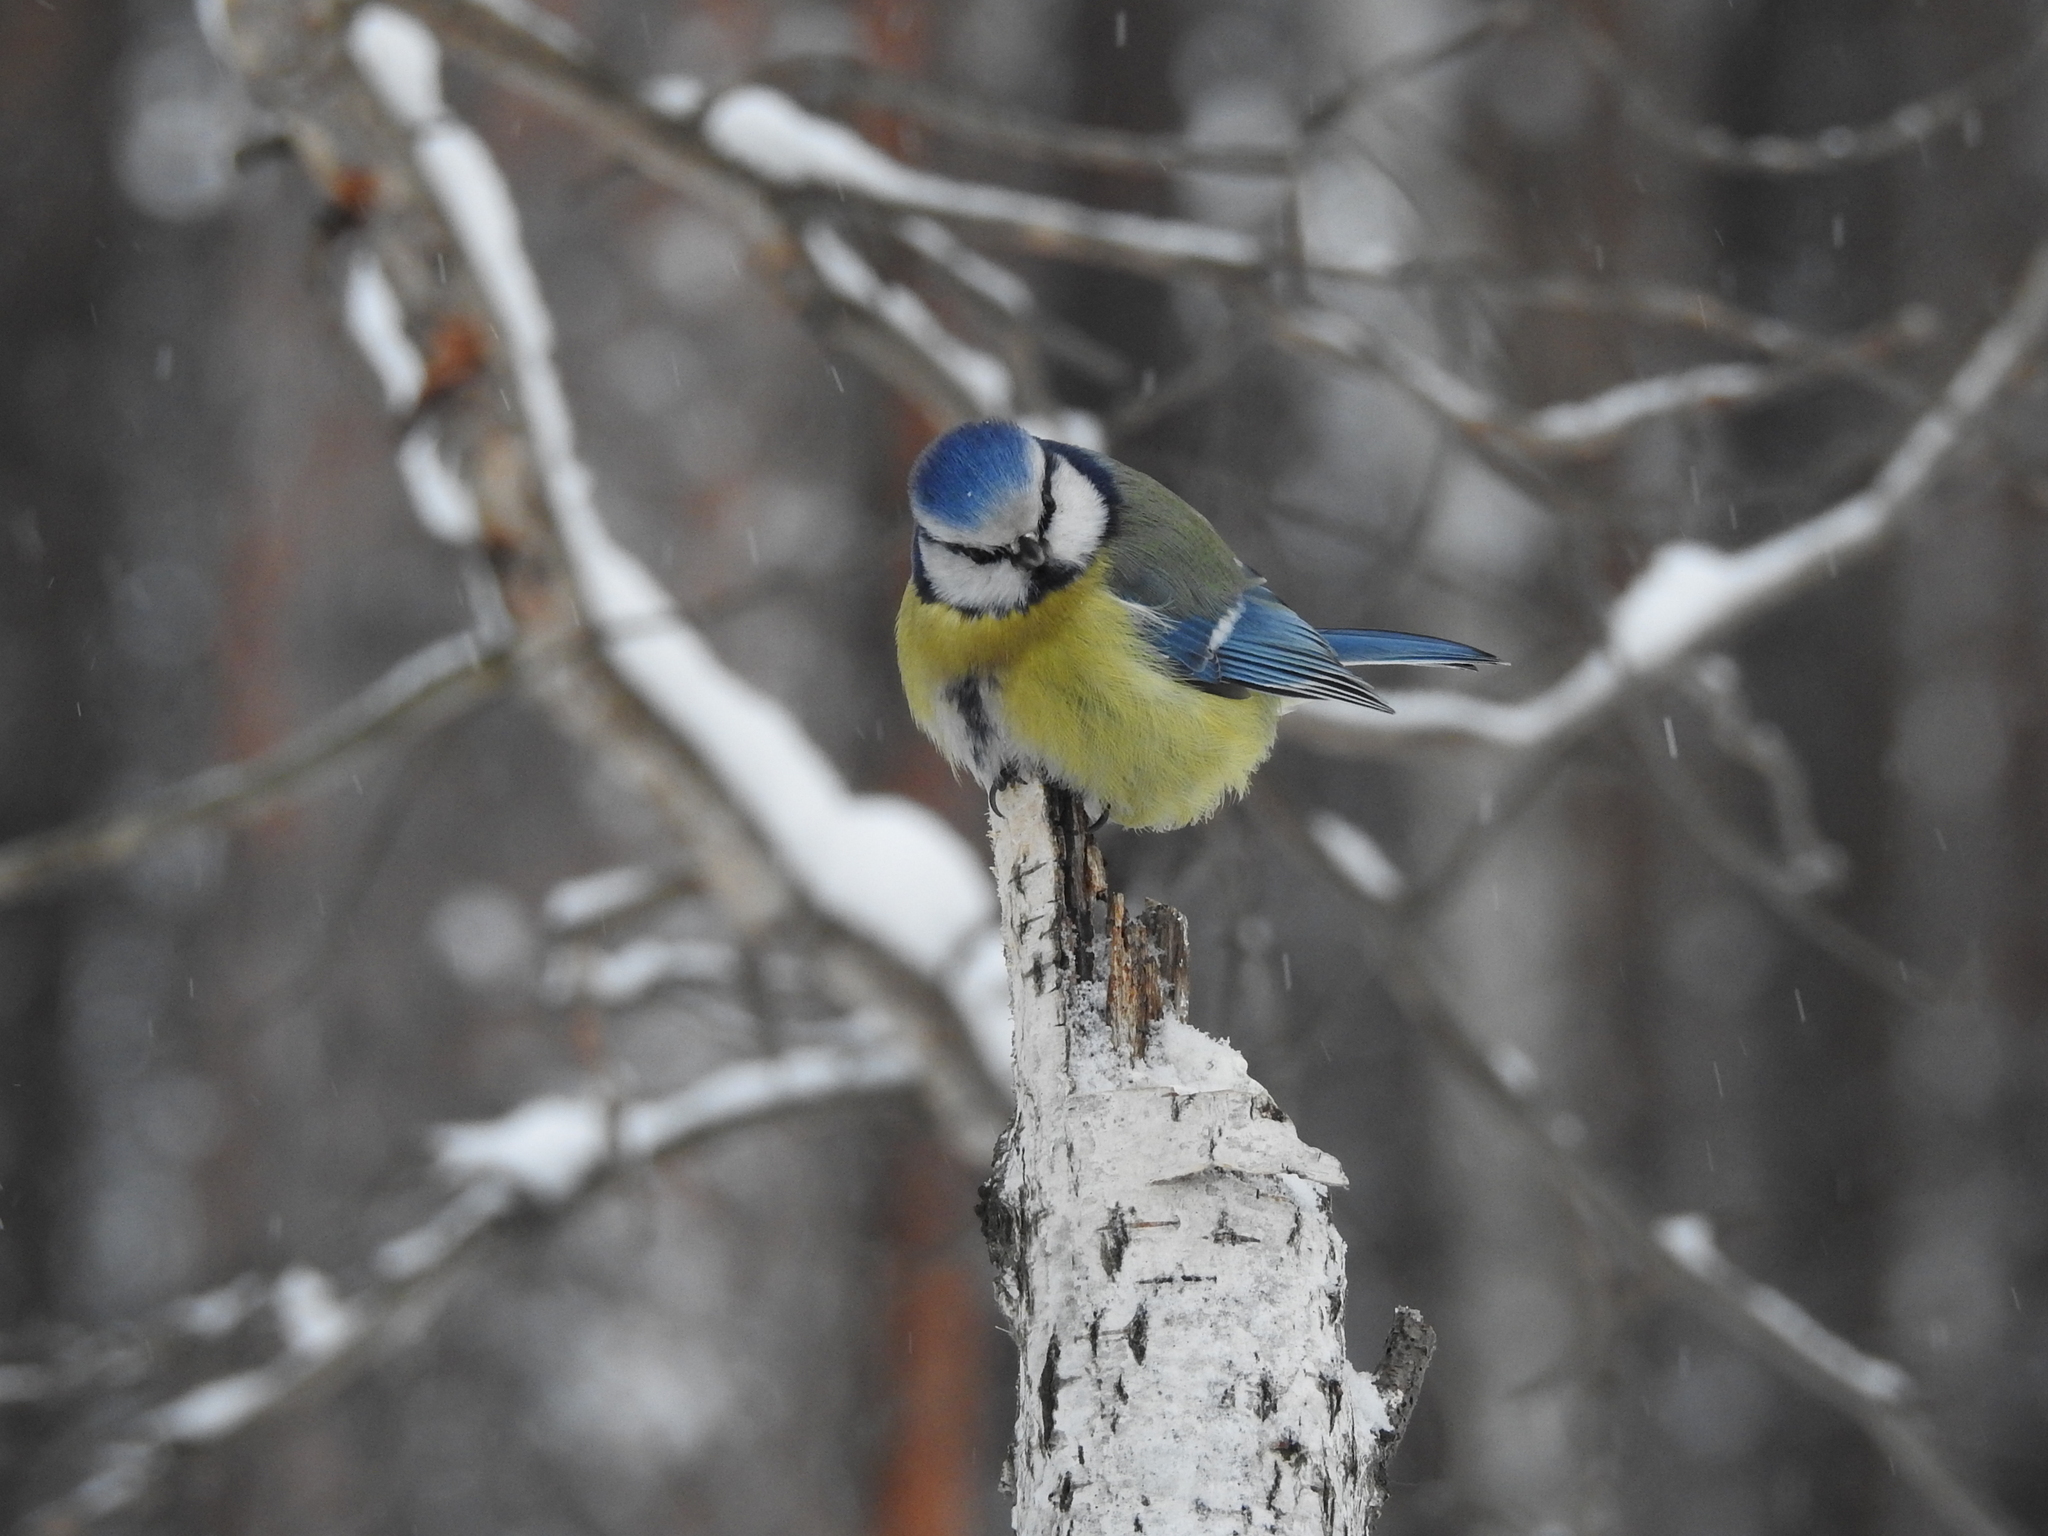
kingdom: Animalia
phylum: Chordata
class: Aves
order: Passeriformes
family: Paridae
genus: Cyanistes
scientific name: Cyanistes caeruleus
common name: Eurasian blue tit
